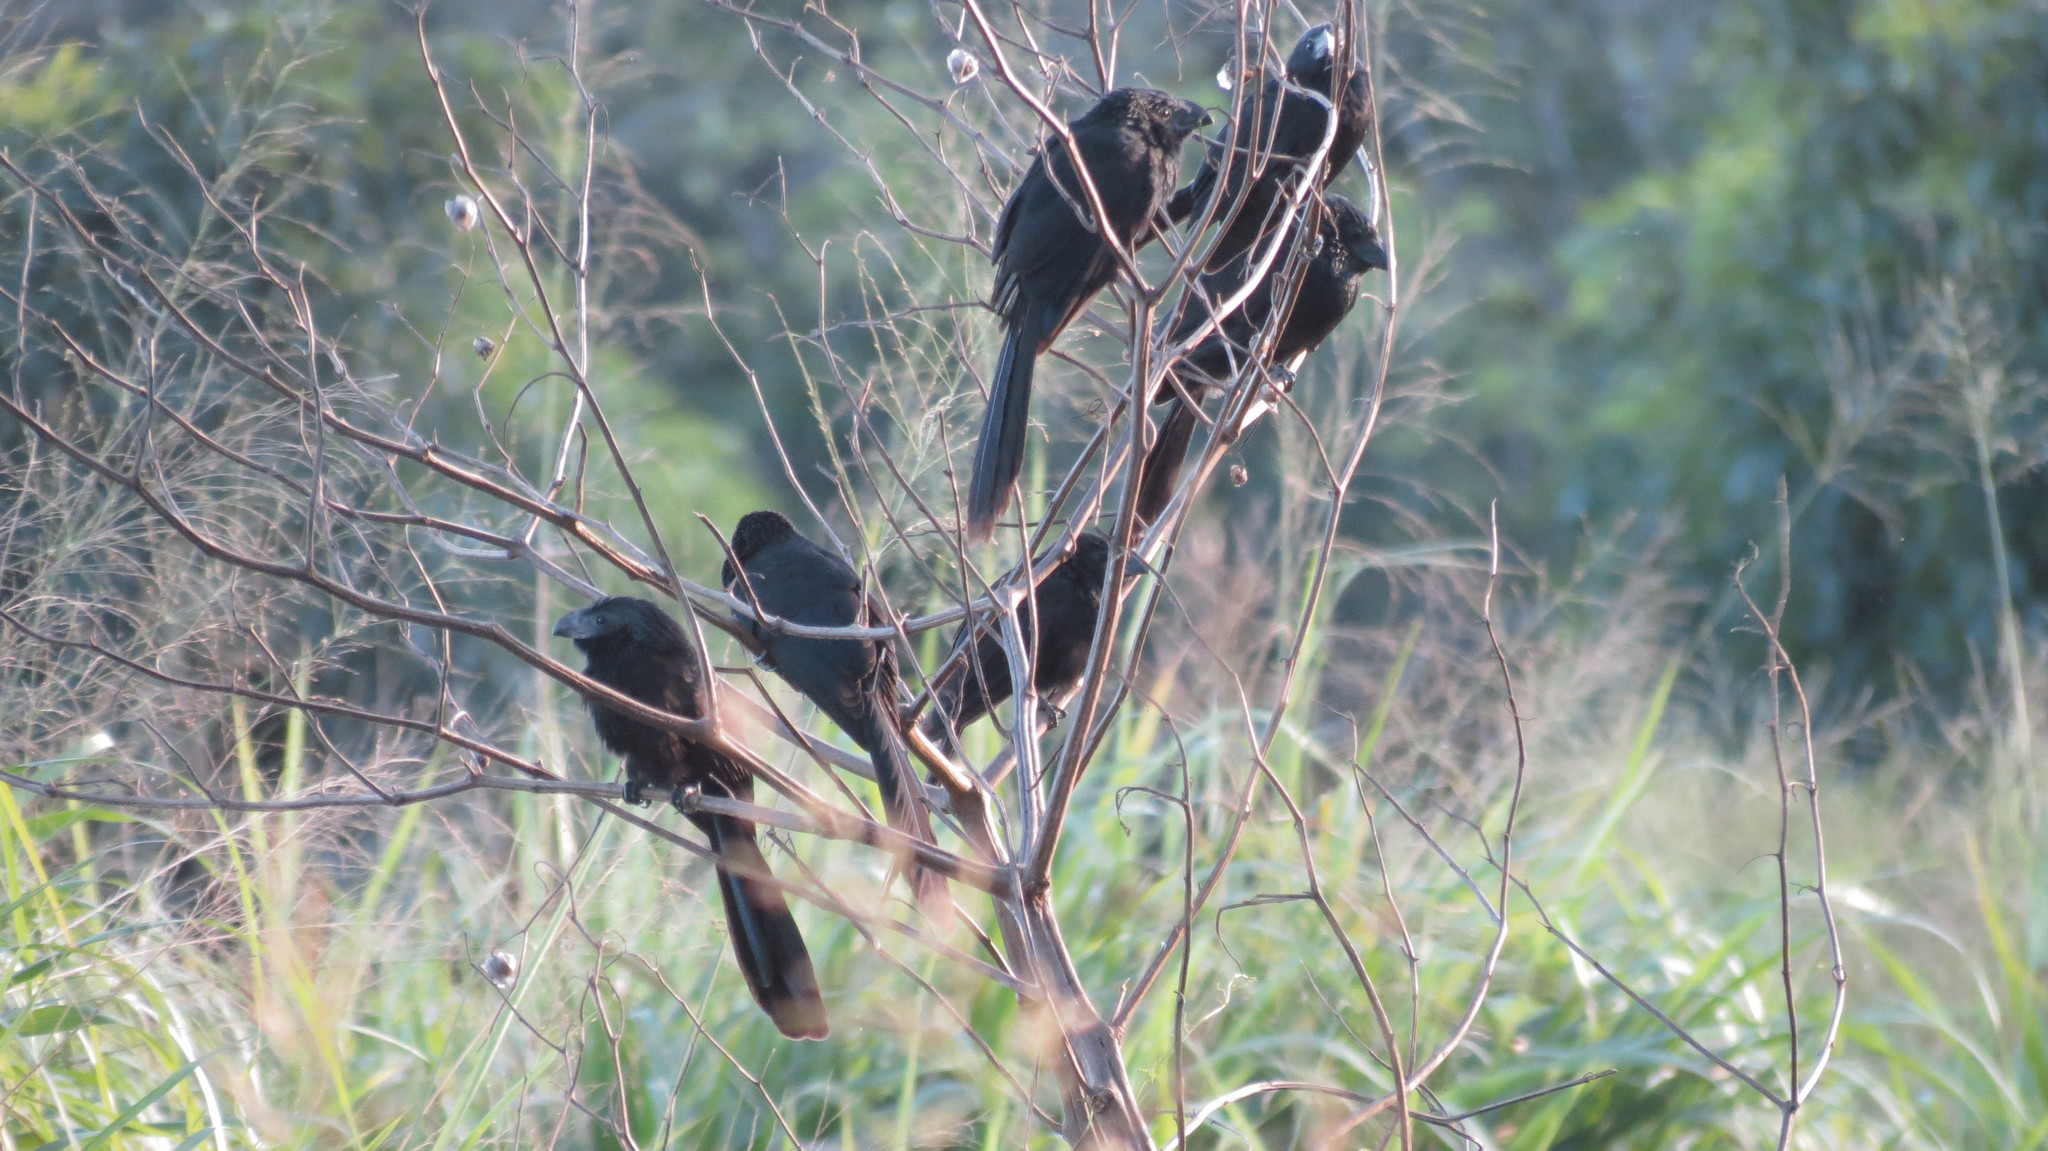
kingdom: Animalia
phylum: Chordata
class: Aves
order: Cuculiformes
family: Cuculidae
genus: Crotophaga
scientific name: Crotophaga sulcirostris
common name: Groove-billed ani
